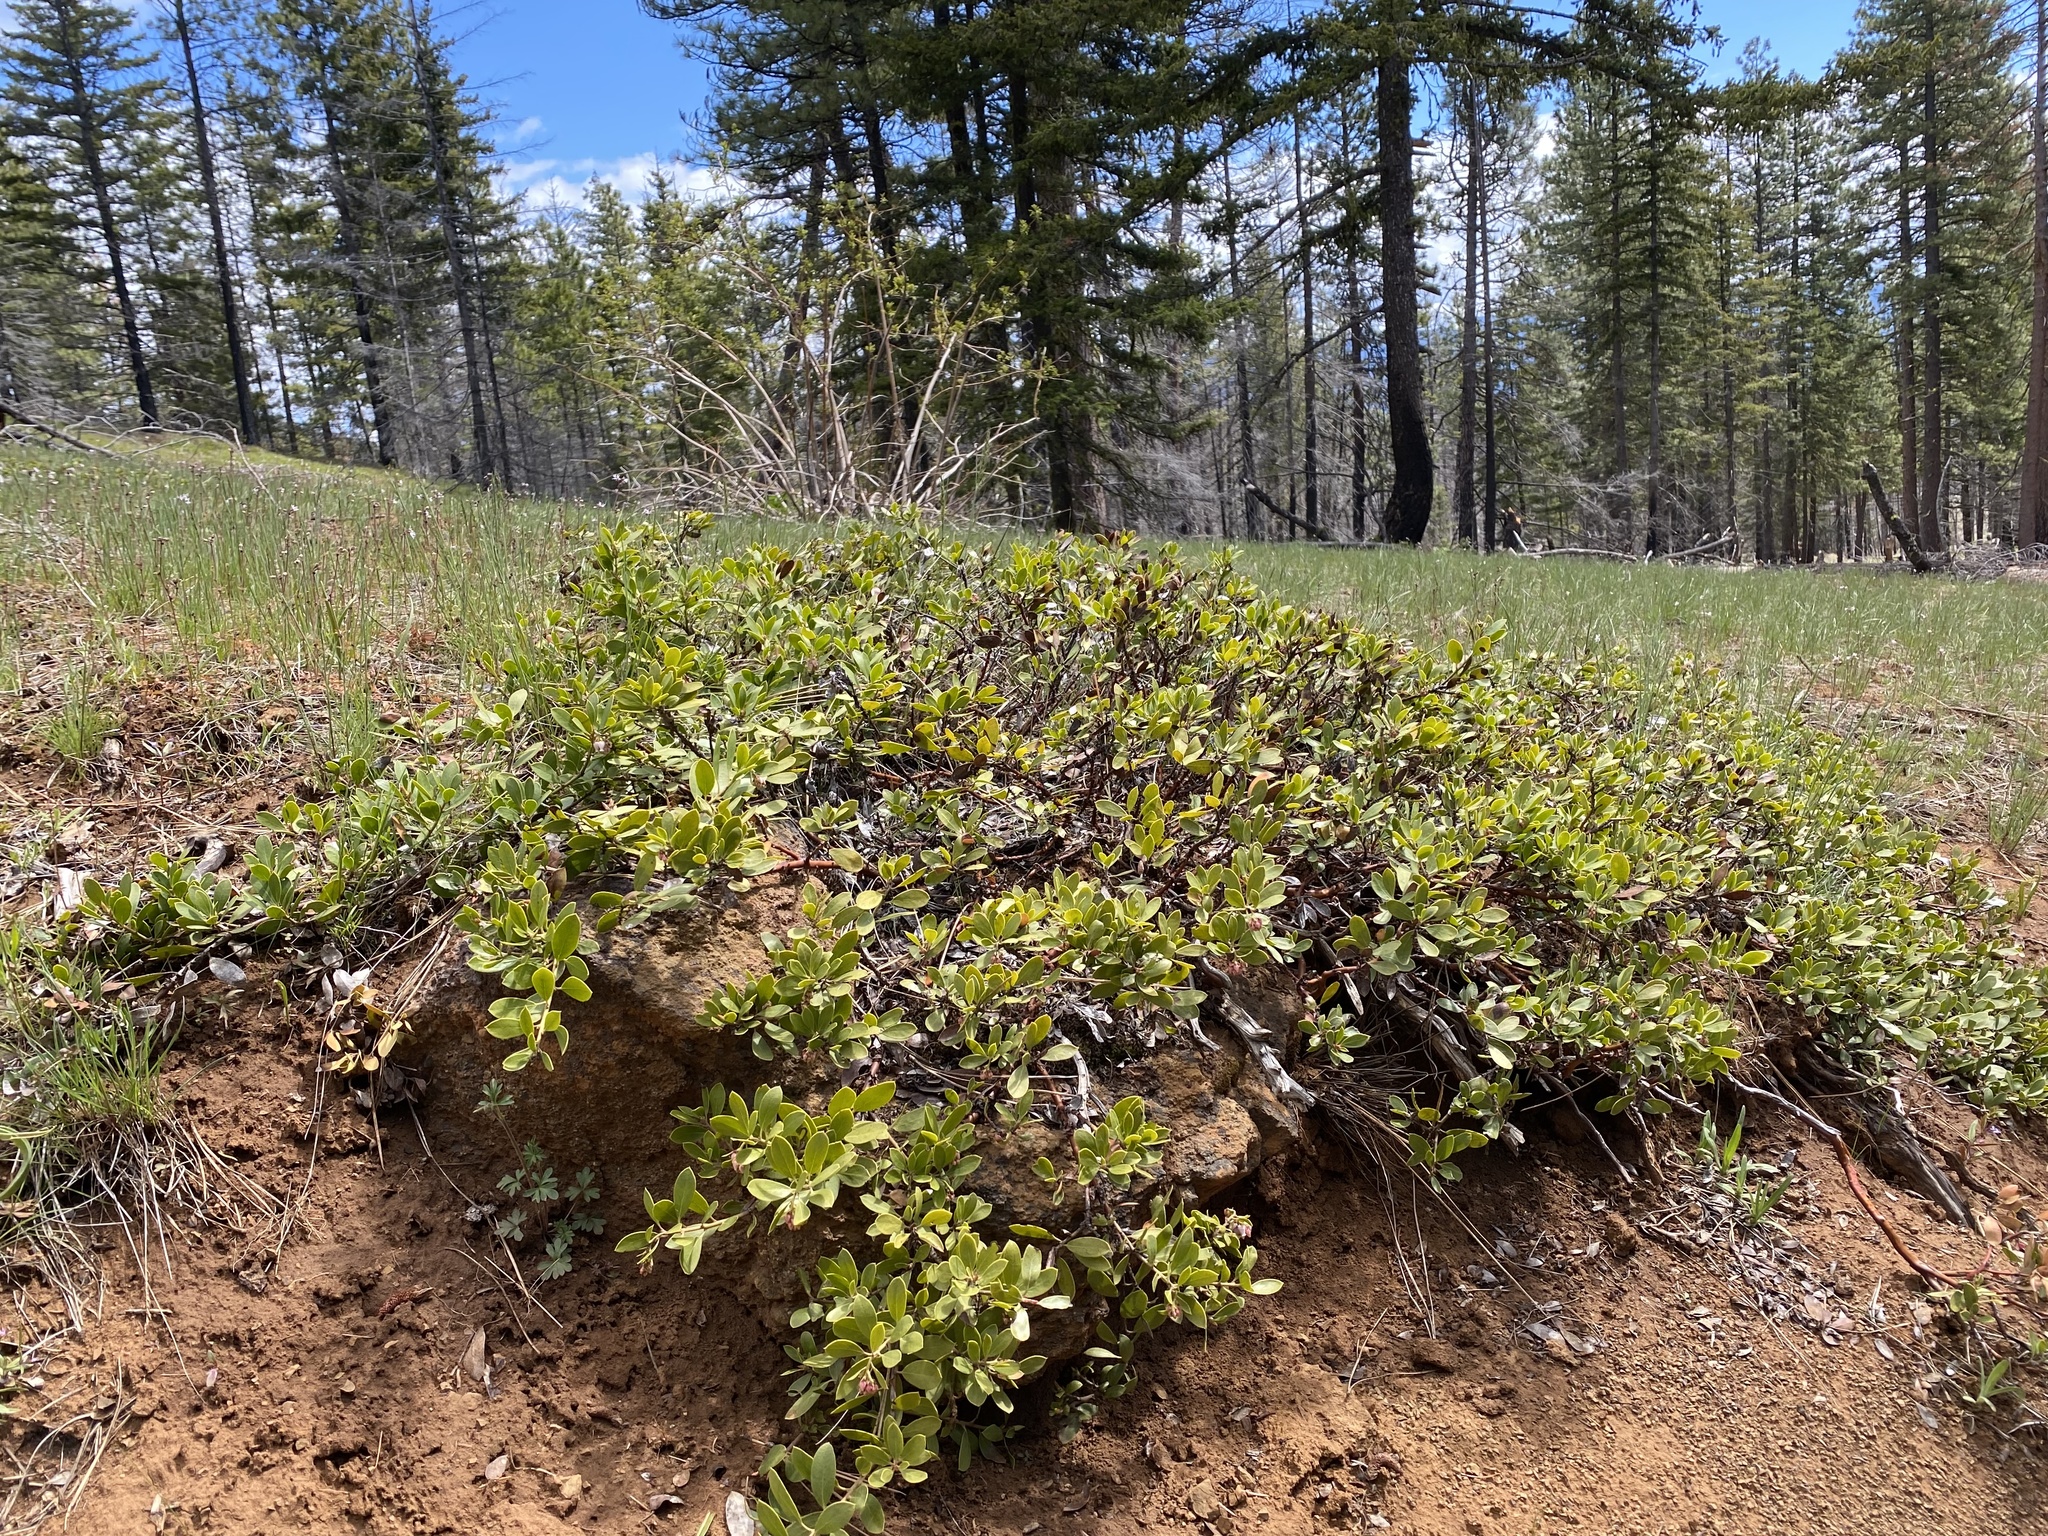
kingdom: Plantae
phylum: Tracheophyta
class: Magnoliopsida
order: Ericales
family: Ericaceae
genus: Arctostaphylos
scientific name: Arctostaphylos nevadensis
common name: Pinemat manzanita
